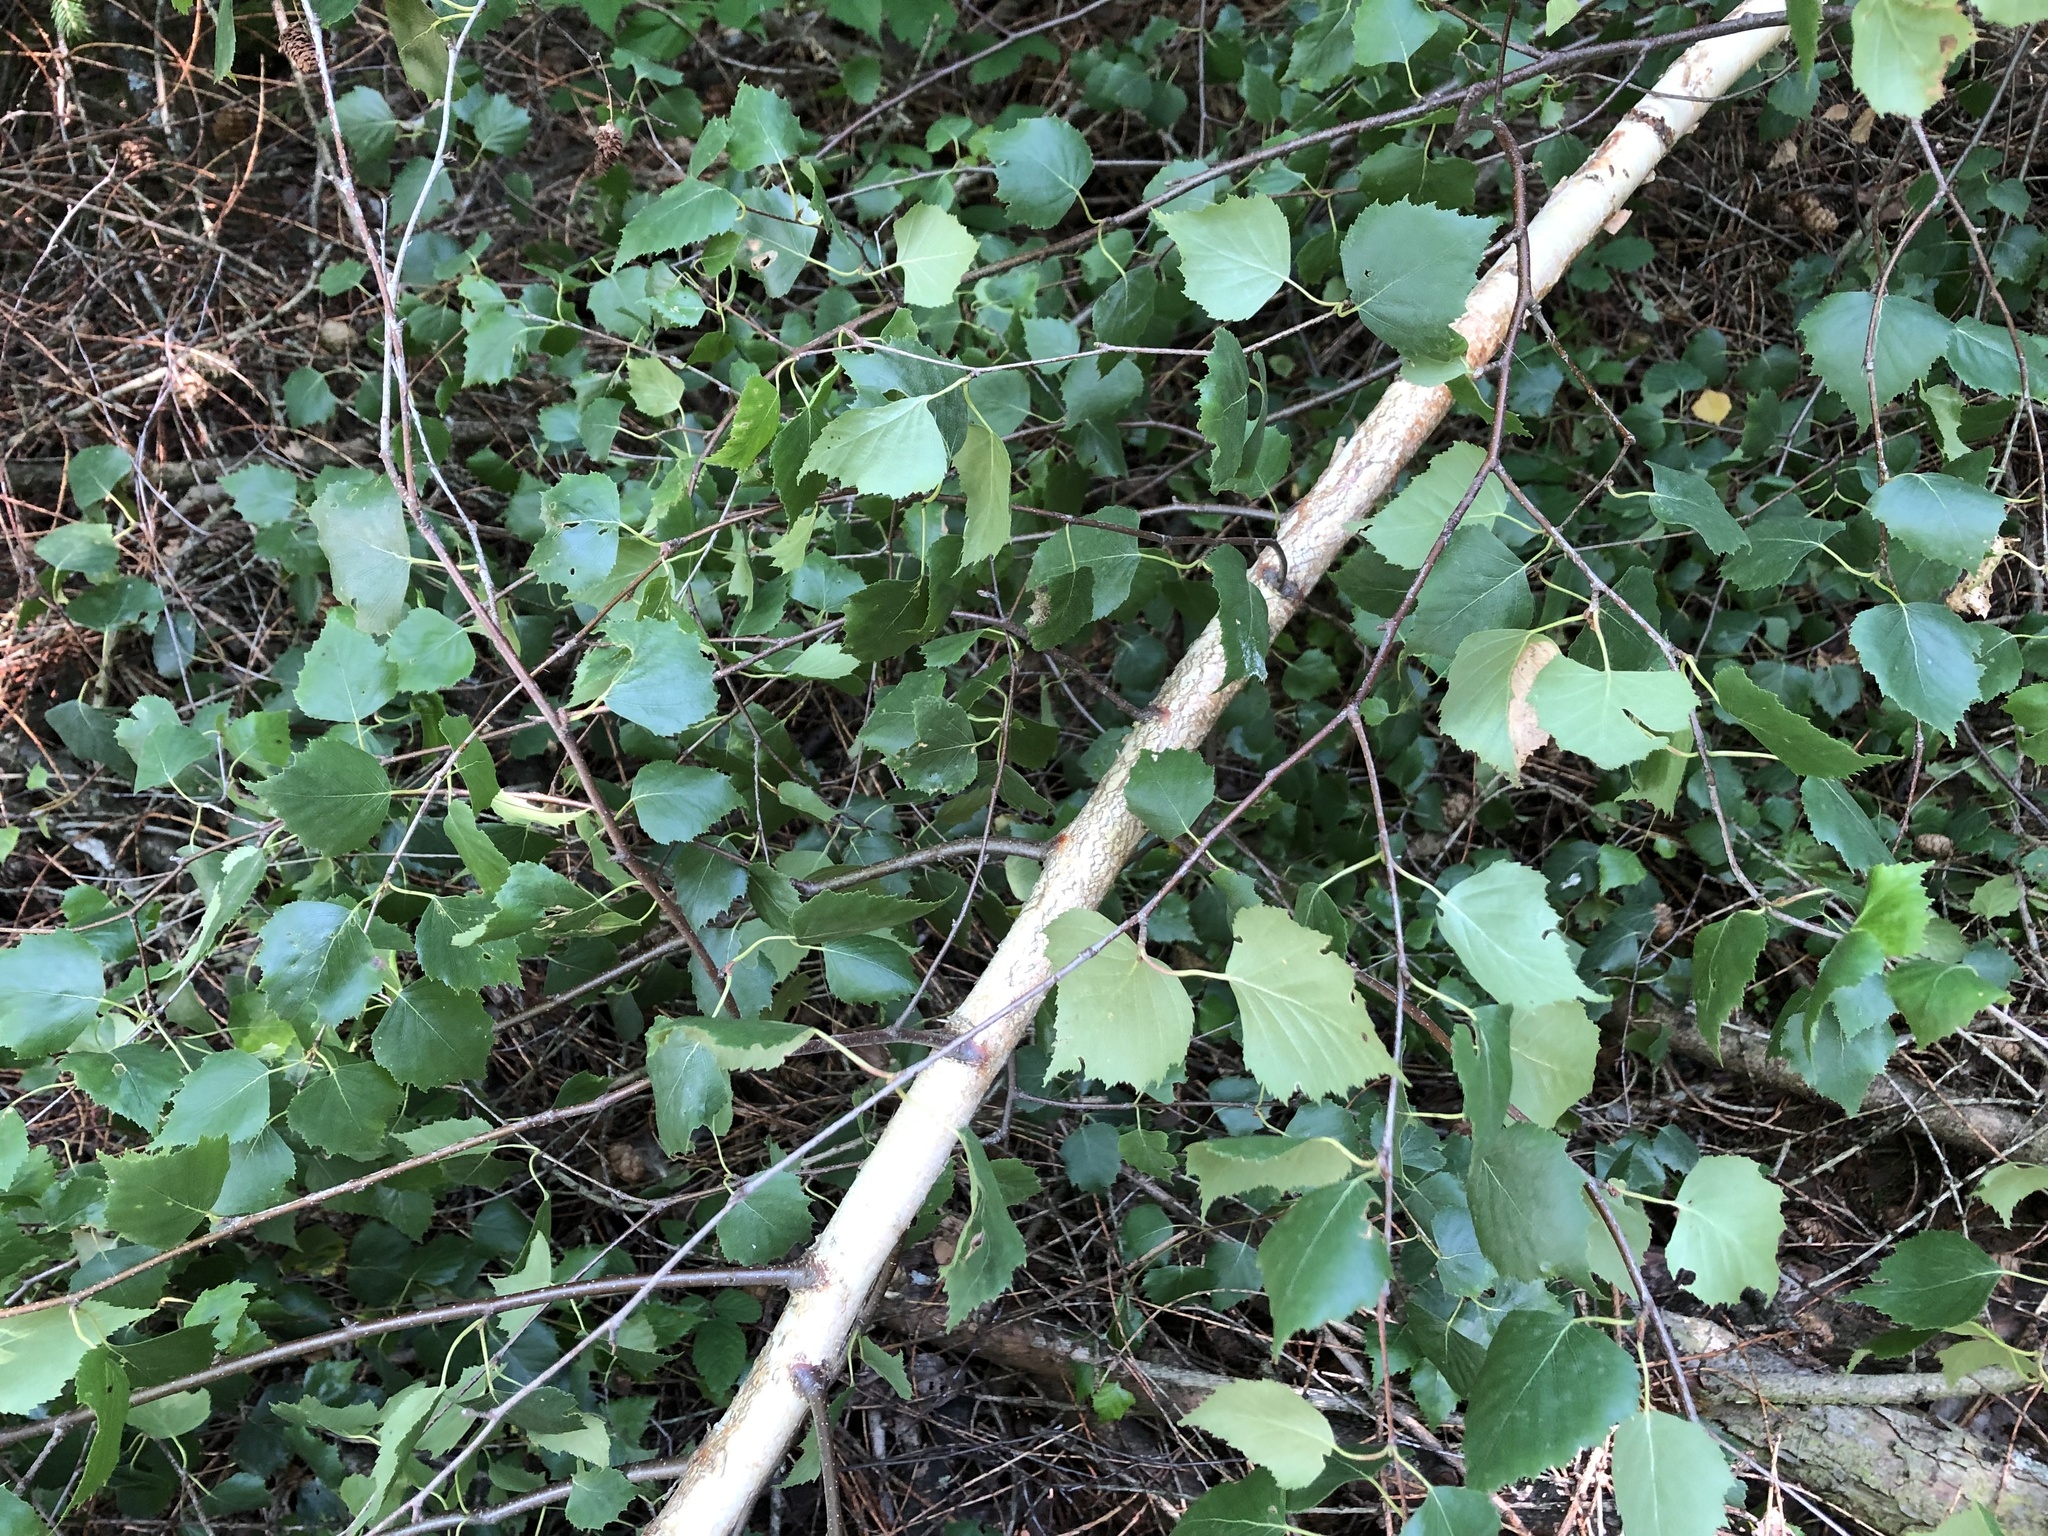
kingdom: Plantae
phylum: Tracheophyta
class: Magnoliopsida
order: Fagales
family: Betulaceae
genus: Betula
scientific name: Betula pendula
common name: Silver birch
